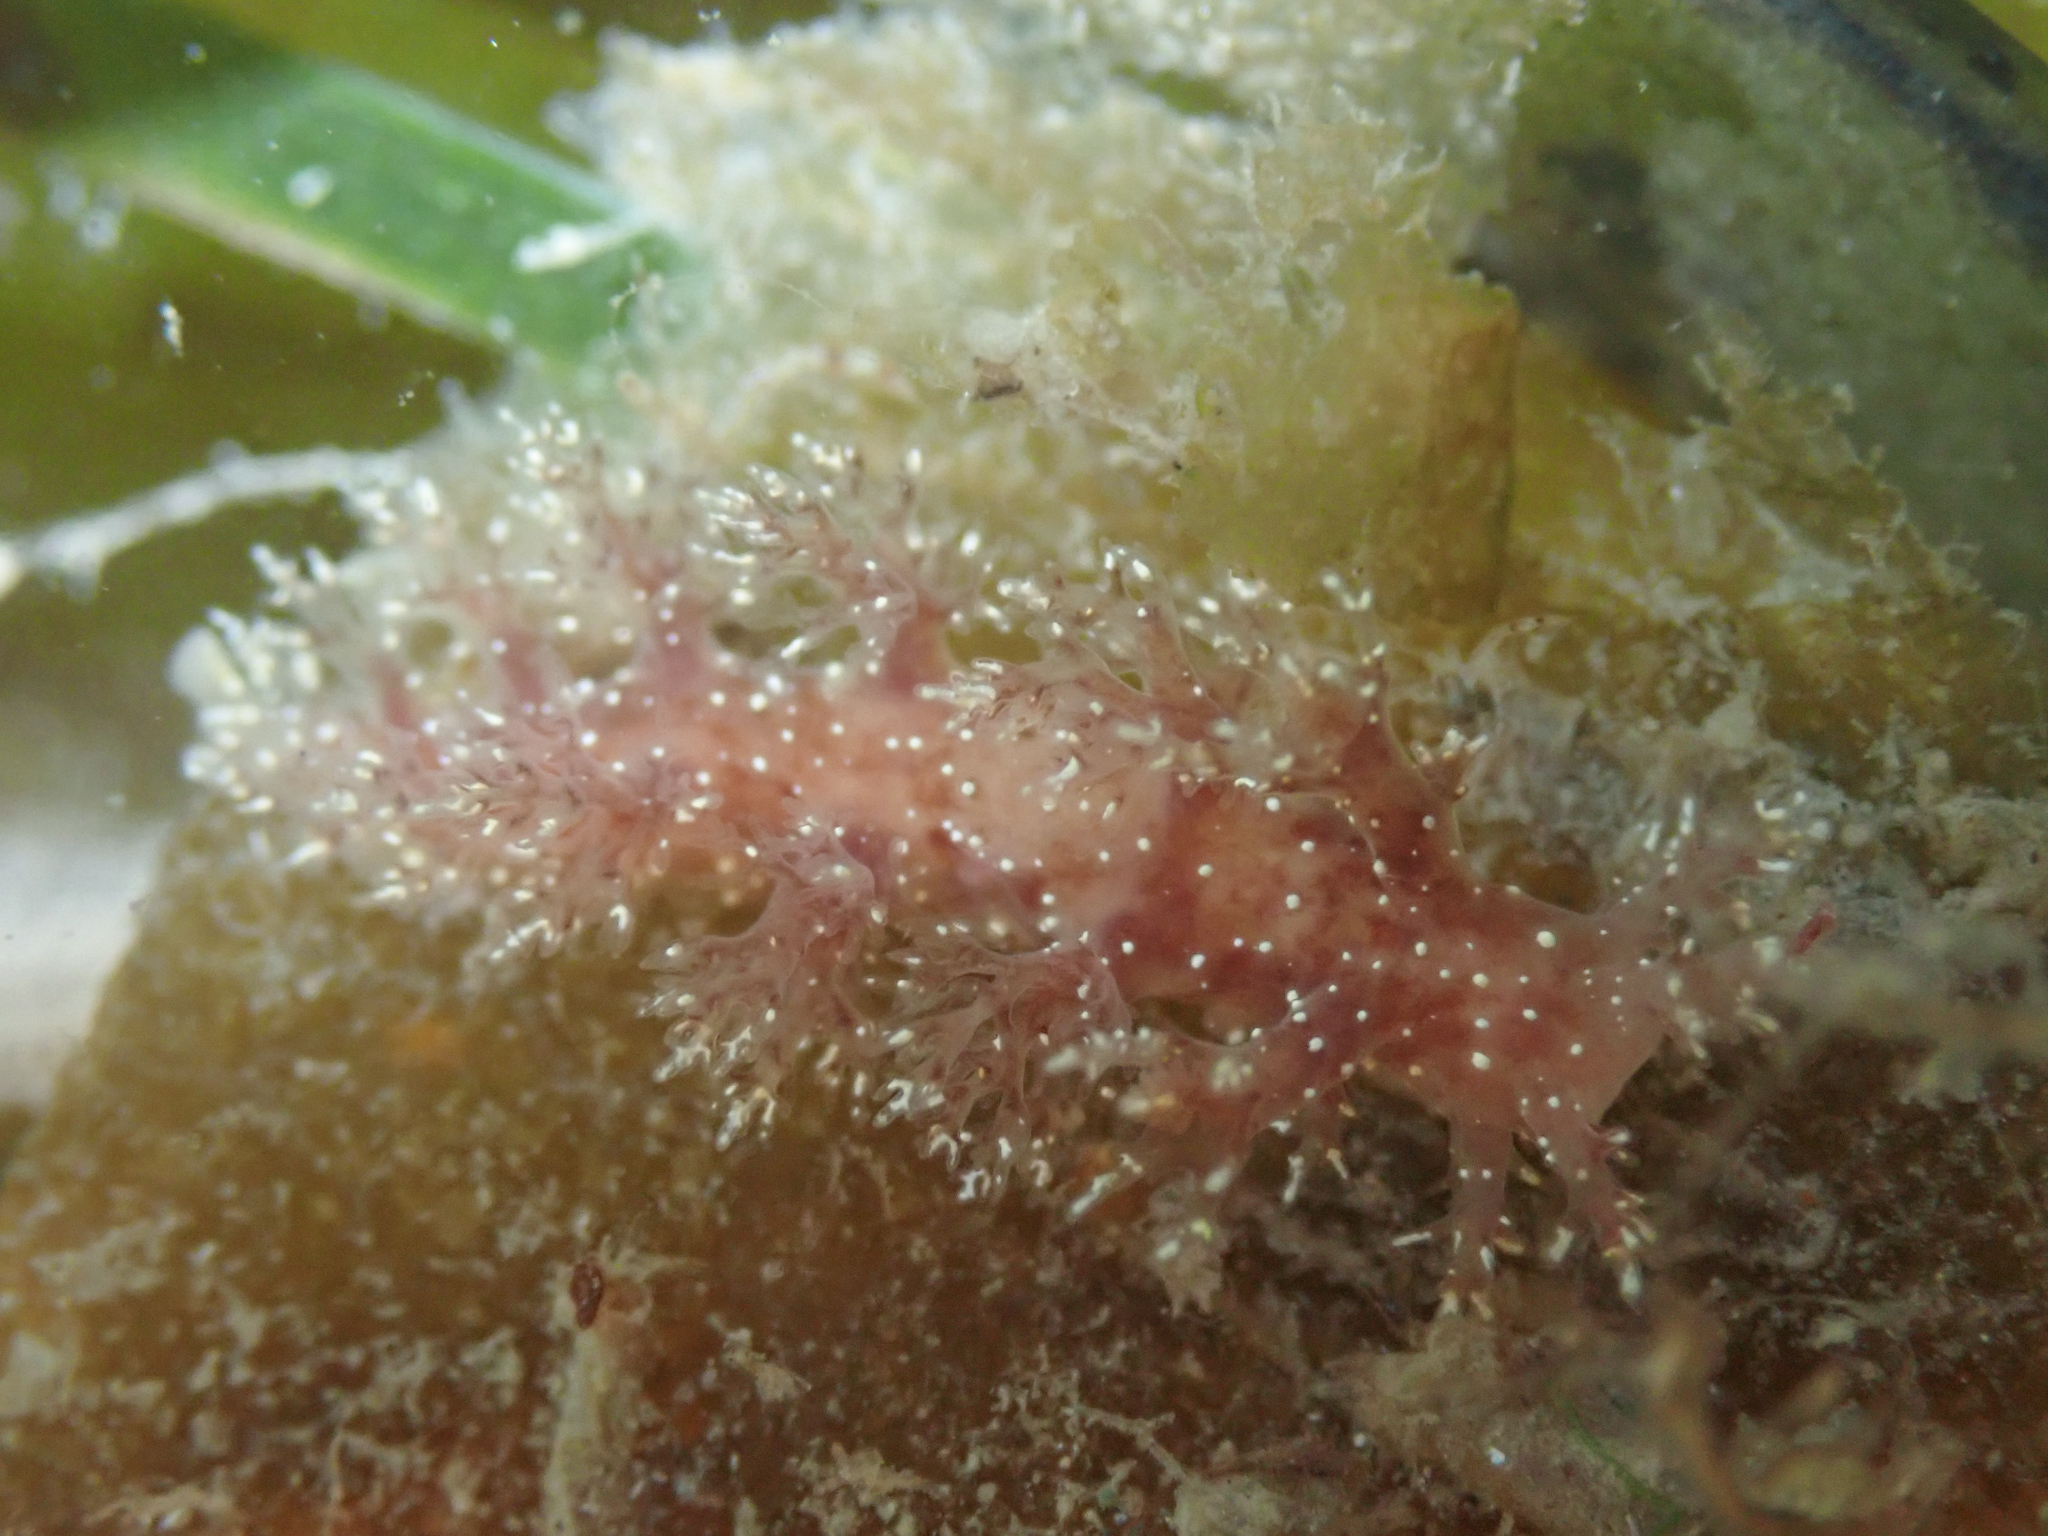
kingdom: Animalia
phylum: Mollusca
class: Gastropoda
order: Nudibranchia
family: Dendronotidae
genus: Dendronotus
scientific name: Dendronotus venustus
